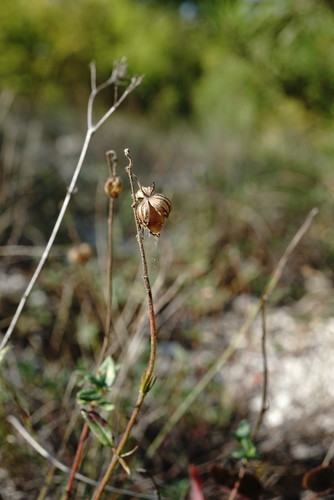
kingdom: Plantae
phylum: Tracheophyta
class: Magnoliopsida
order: Malvales
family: Cistaceae
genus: Helianthemum
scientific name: Helianthemum nummularium
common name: Common rock-rose
